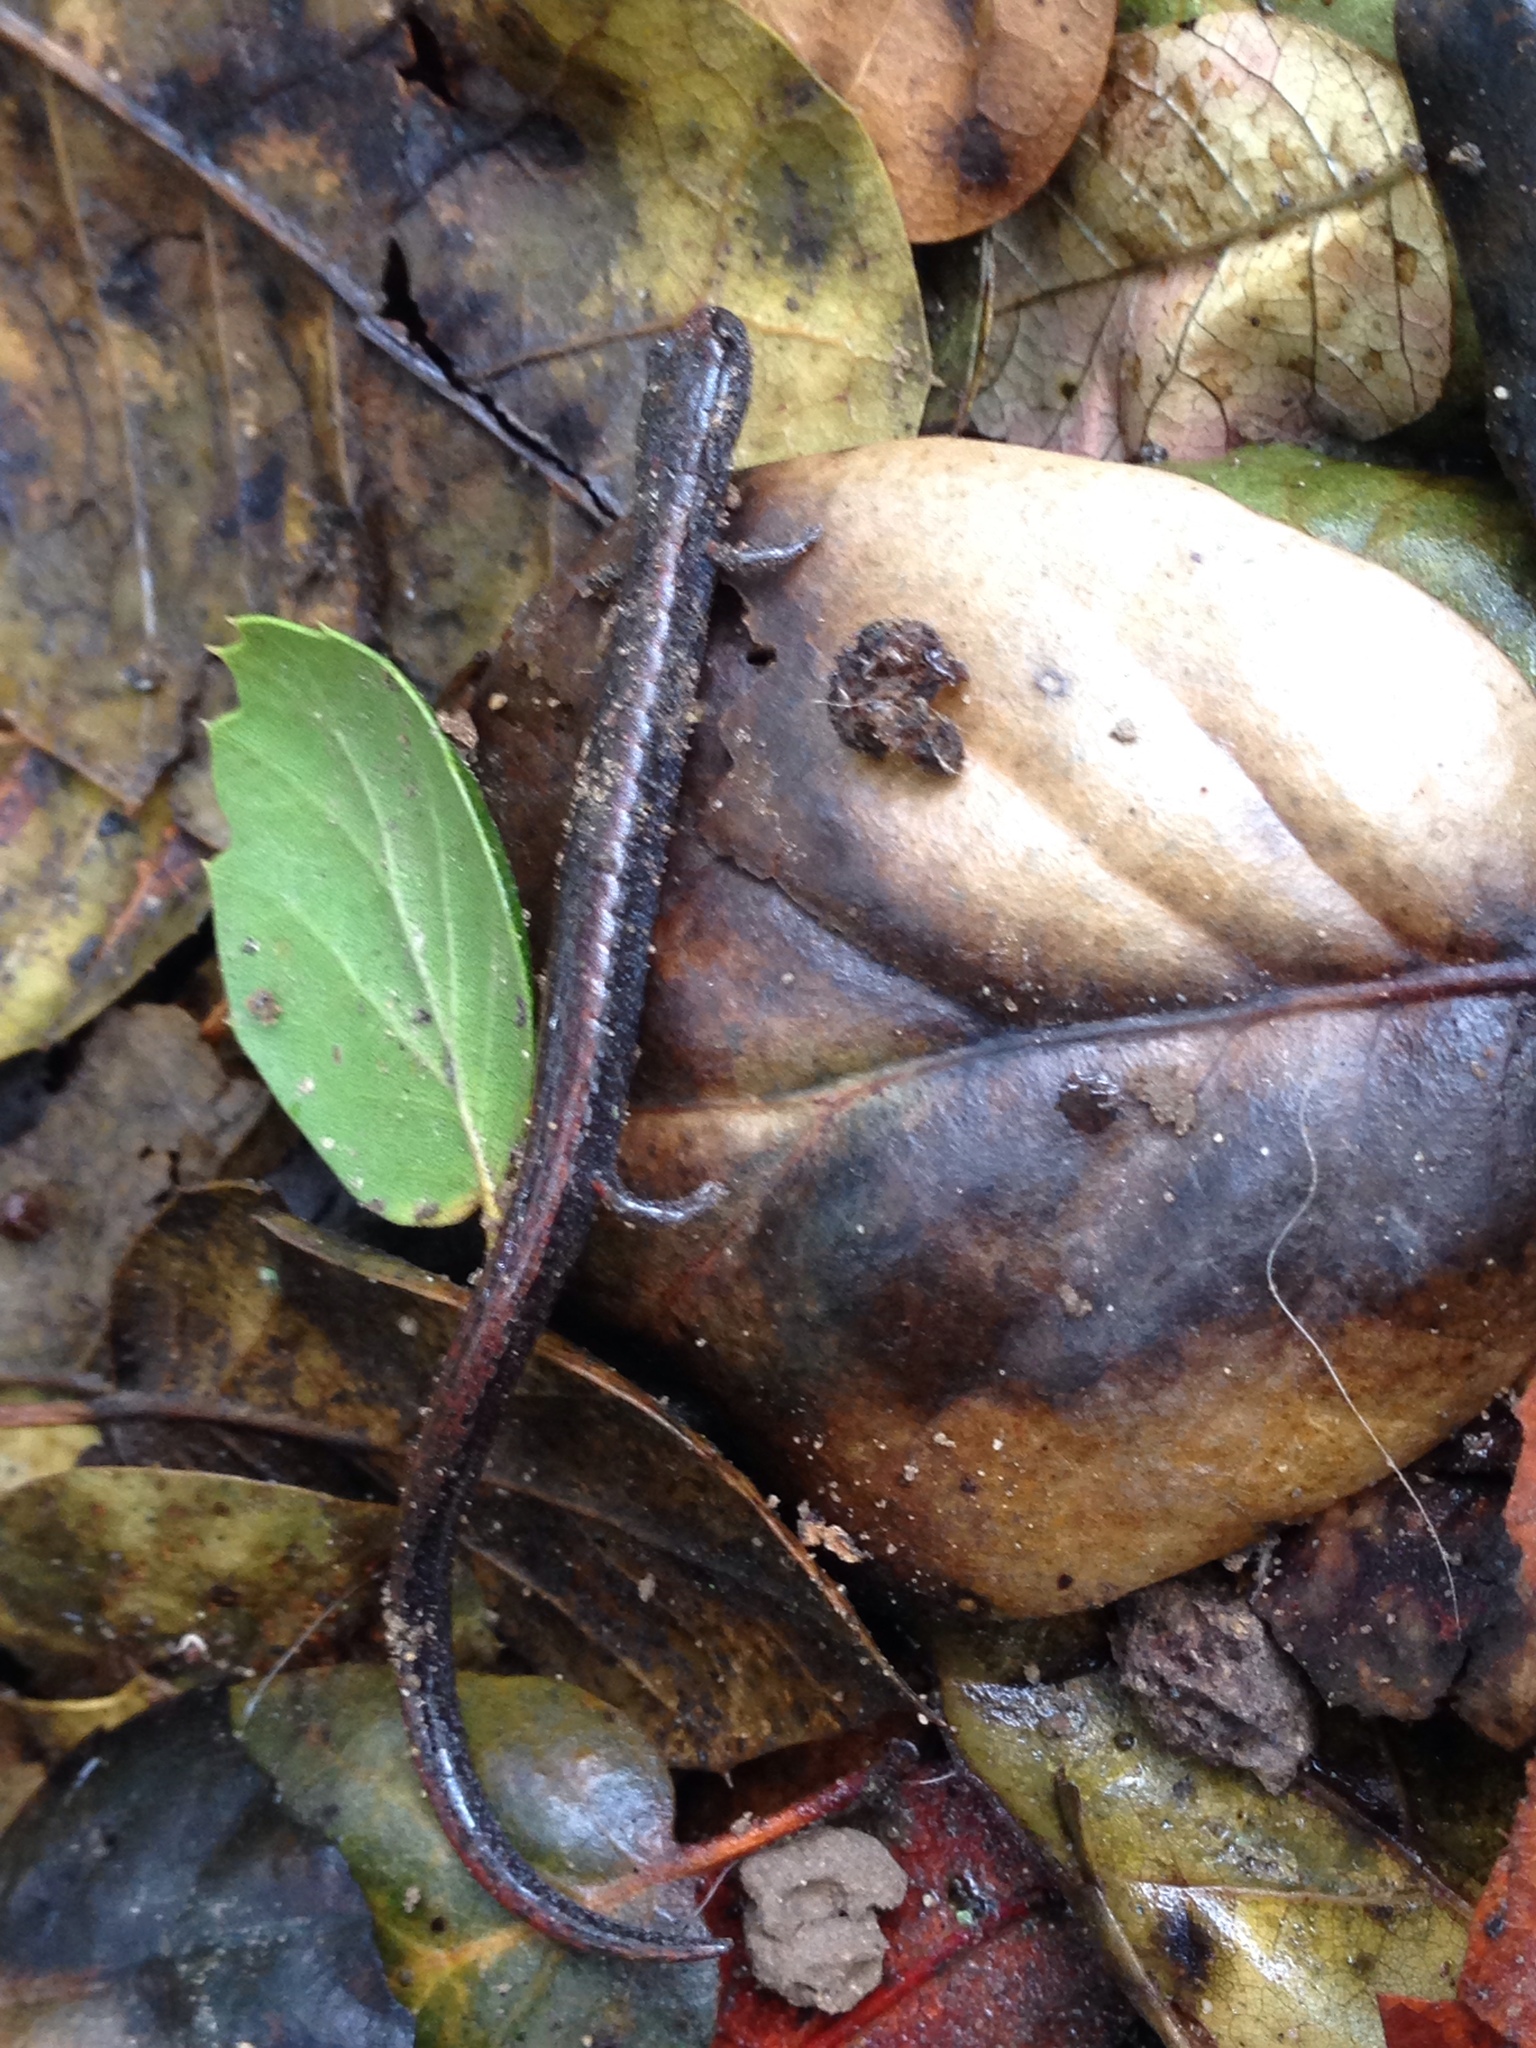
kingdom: Animalia
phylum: Chordata
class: Amphibia
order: Caudata
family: Plethodontidae
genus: Batrachoseps
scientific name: Batrachoseps attenuatus
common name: California slender salamander
